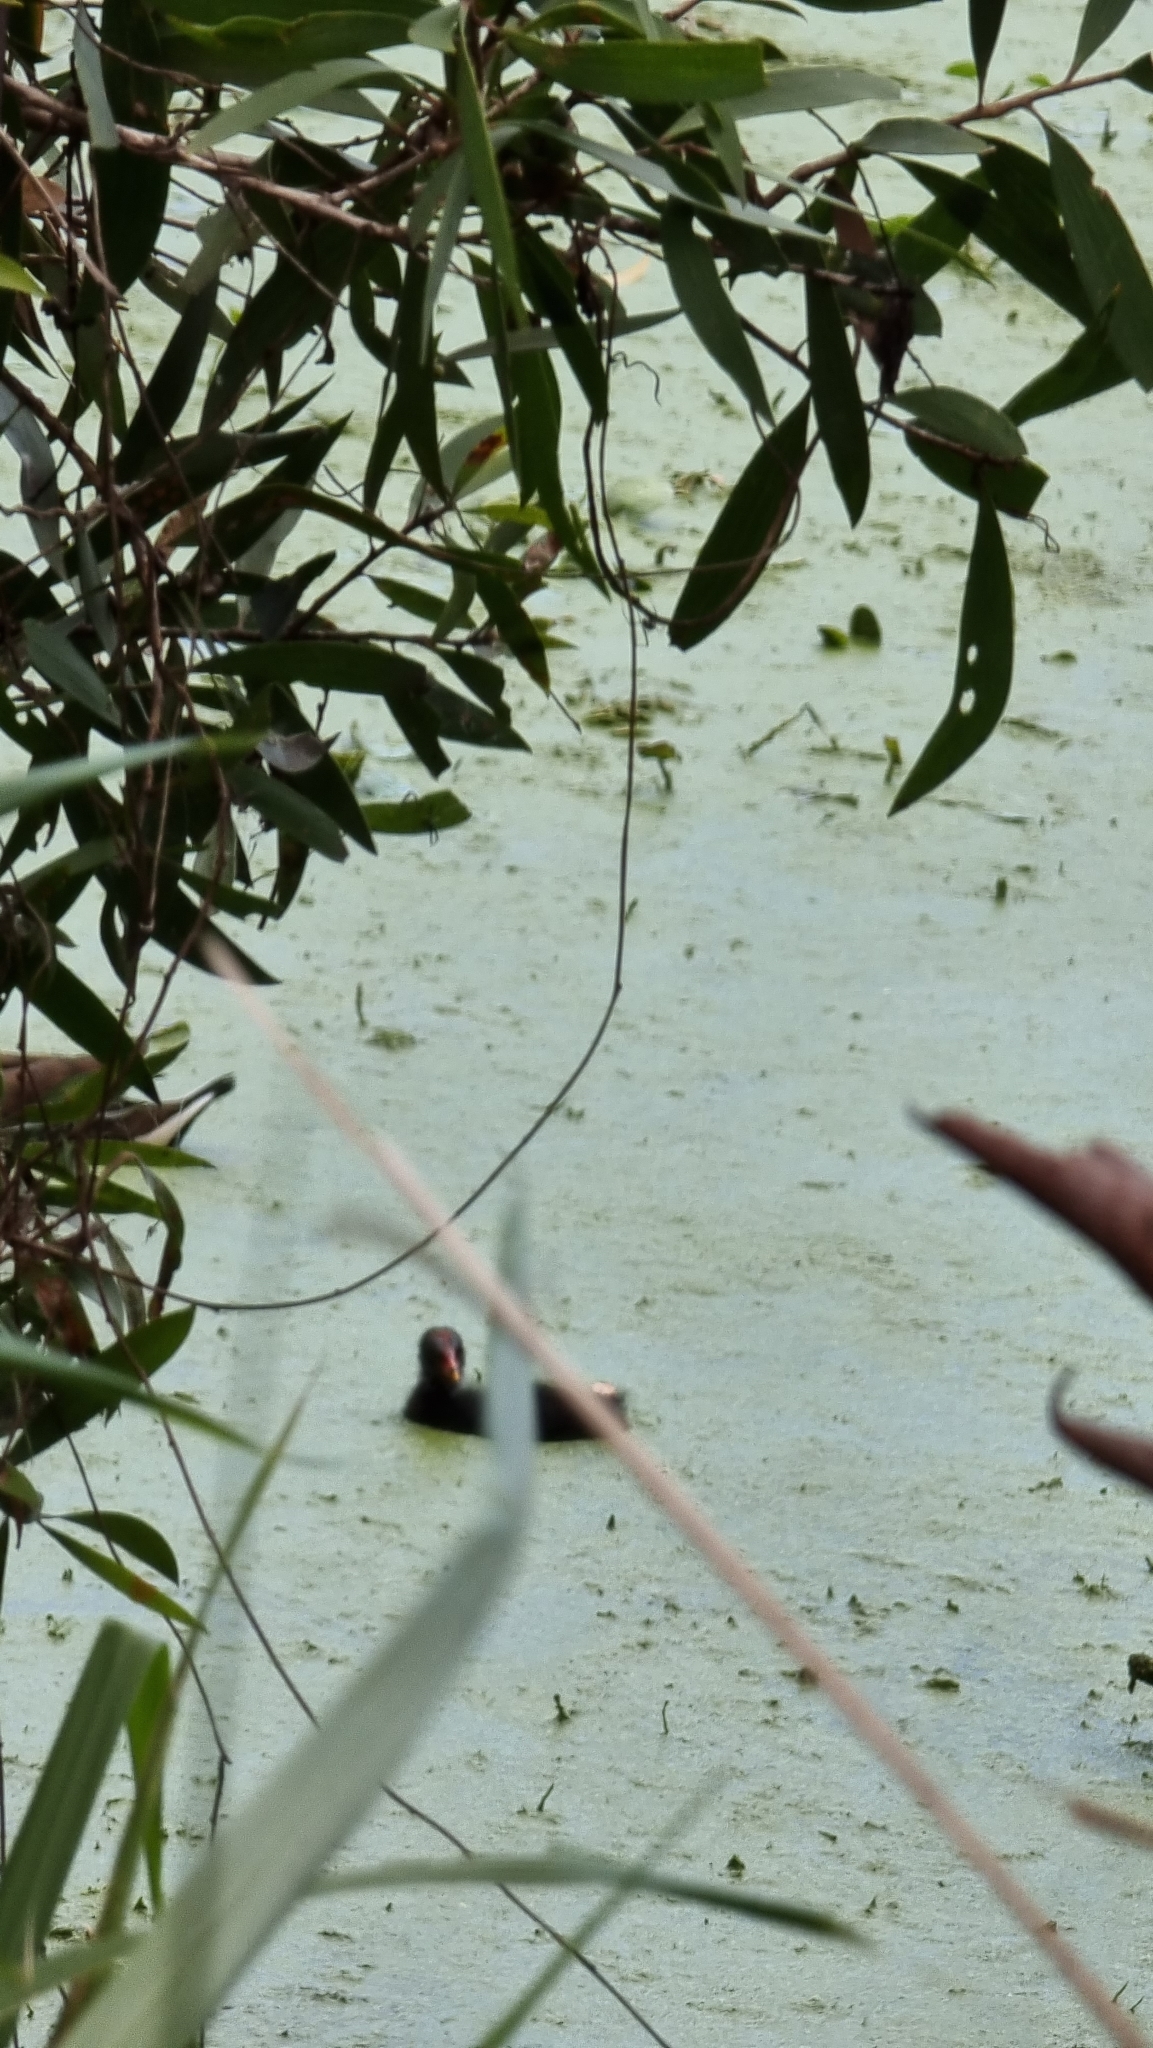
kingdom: Animalia
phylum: Chordata
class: Aves
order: Gruiformes
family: Rallidae
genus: Gallinula
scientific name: Gallinula tenebrosa
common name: Dusky moorhen
